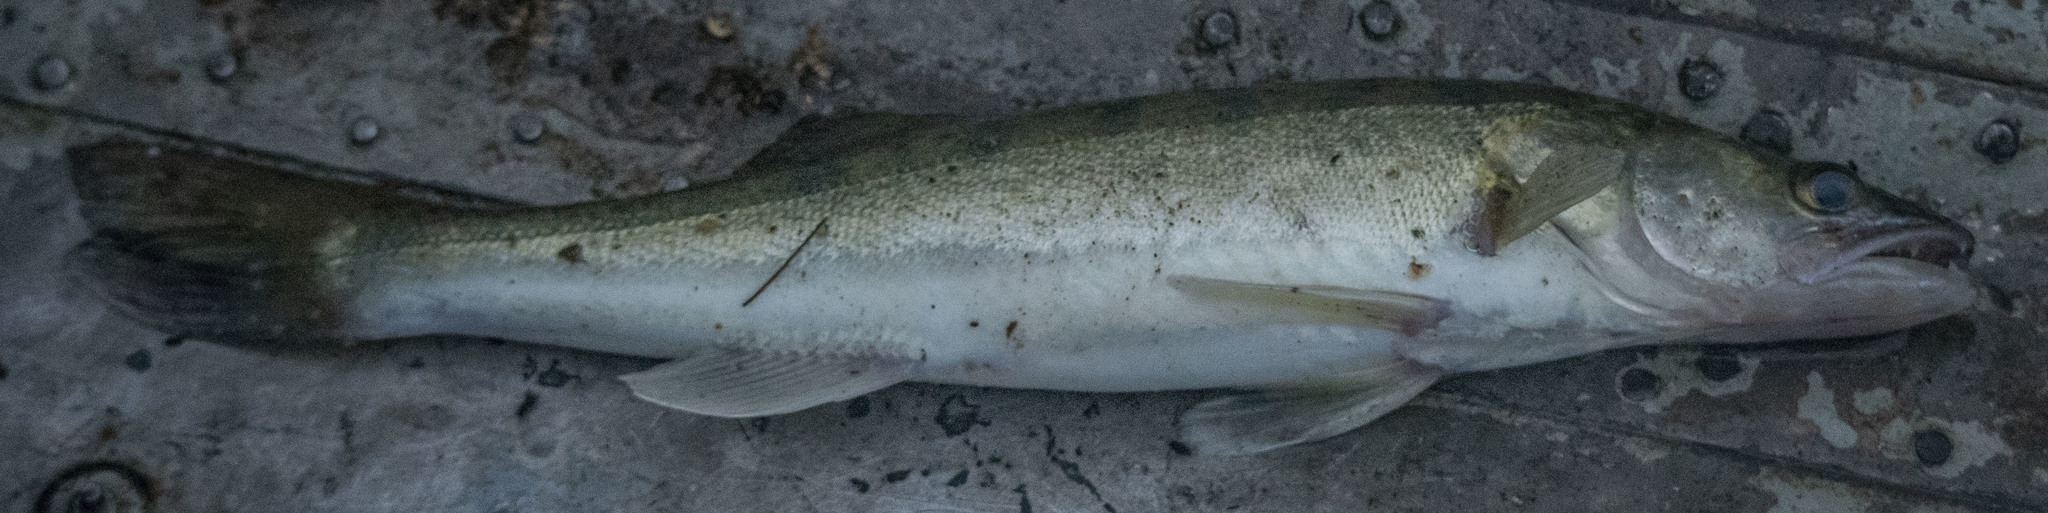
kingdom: Animalia
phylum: Chordata
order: Perciformes
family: Percidae
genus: Sander
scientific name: Sander lucioperca
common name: Pikeperch
